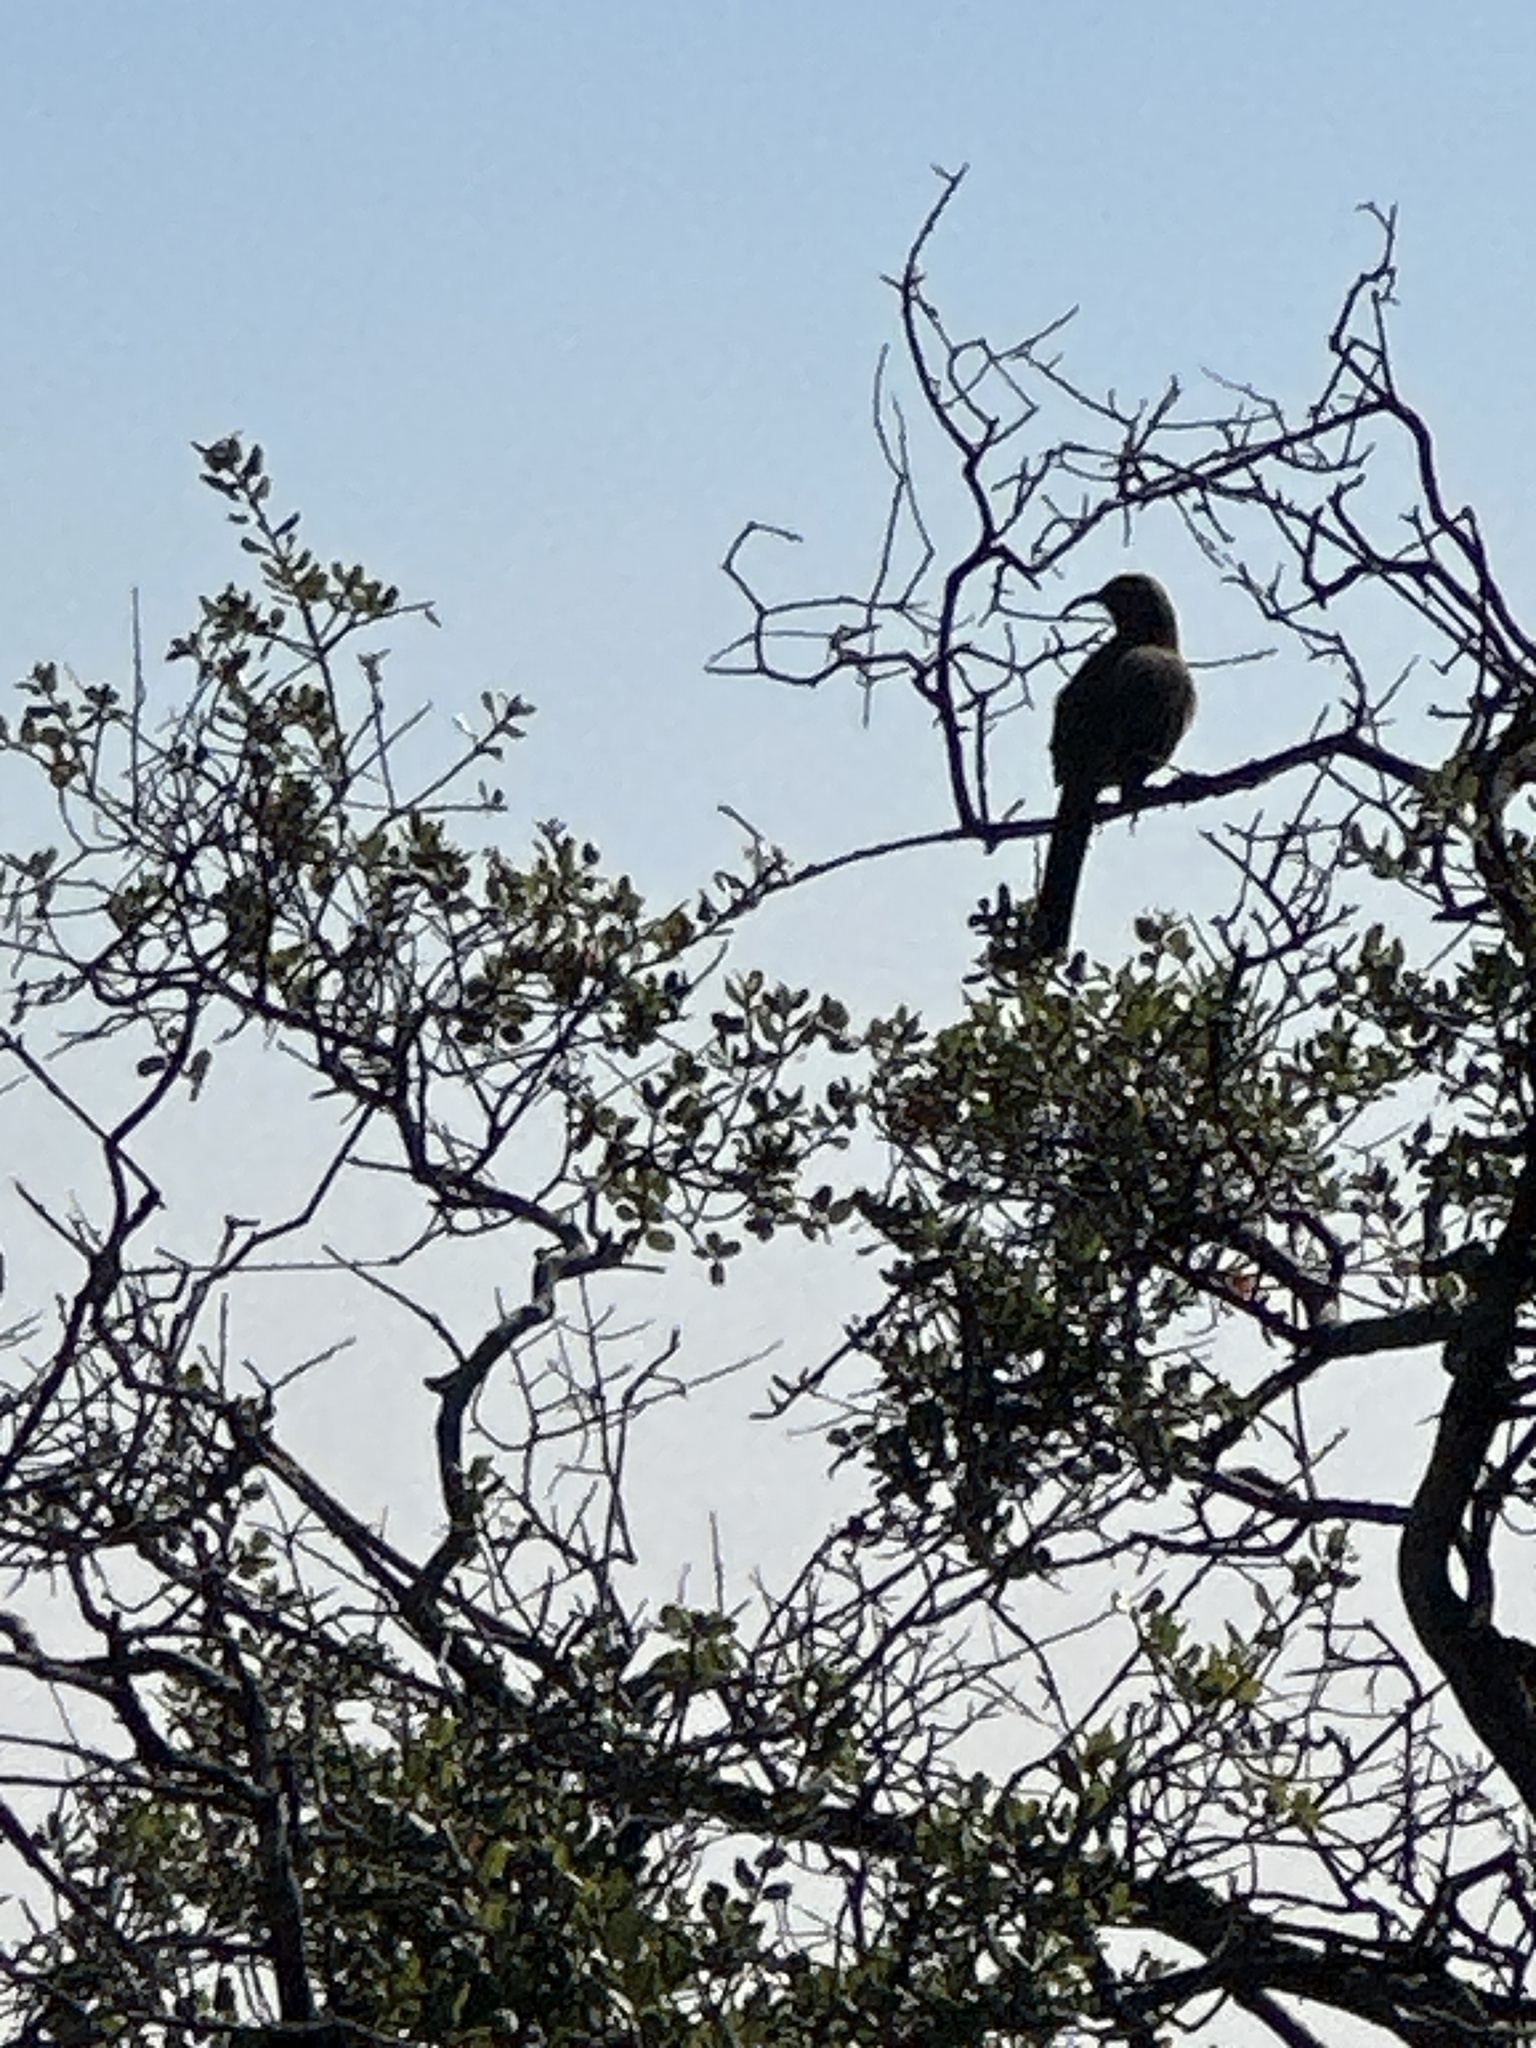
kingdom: Animalia
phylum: Chordata
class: Aves
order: Passeriformes
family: Mimidae
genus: Toxostoma
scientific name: Toxostoma redivivum
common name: California thrasher
